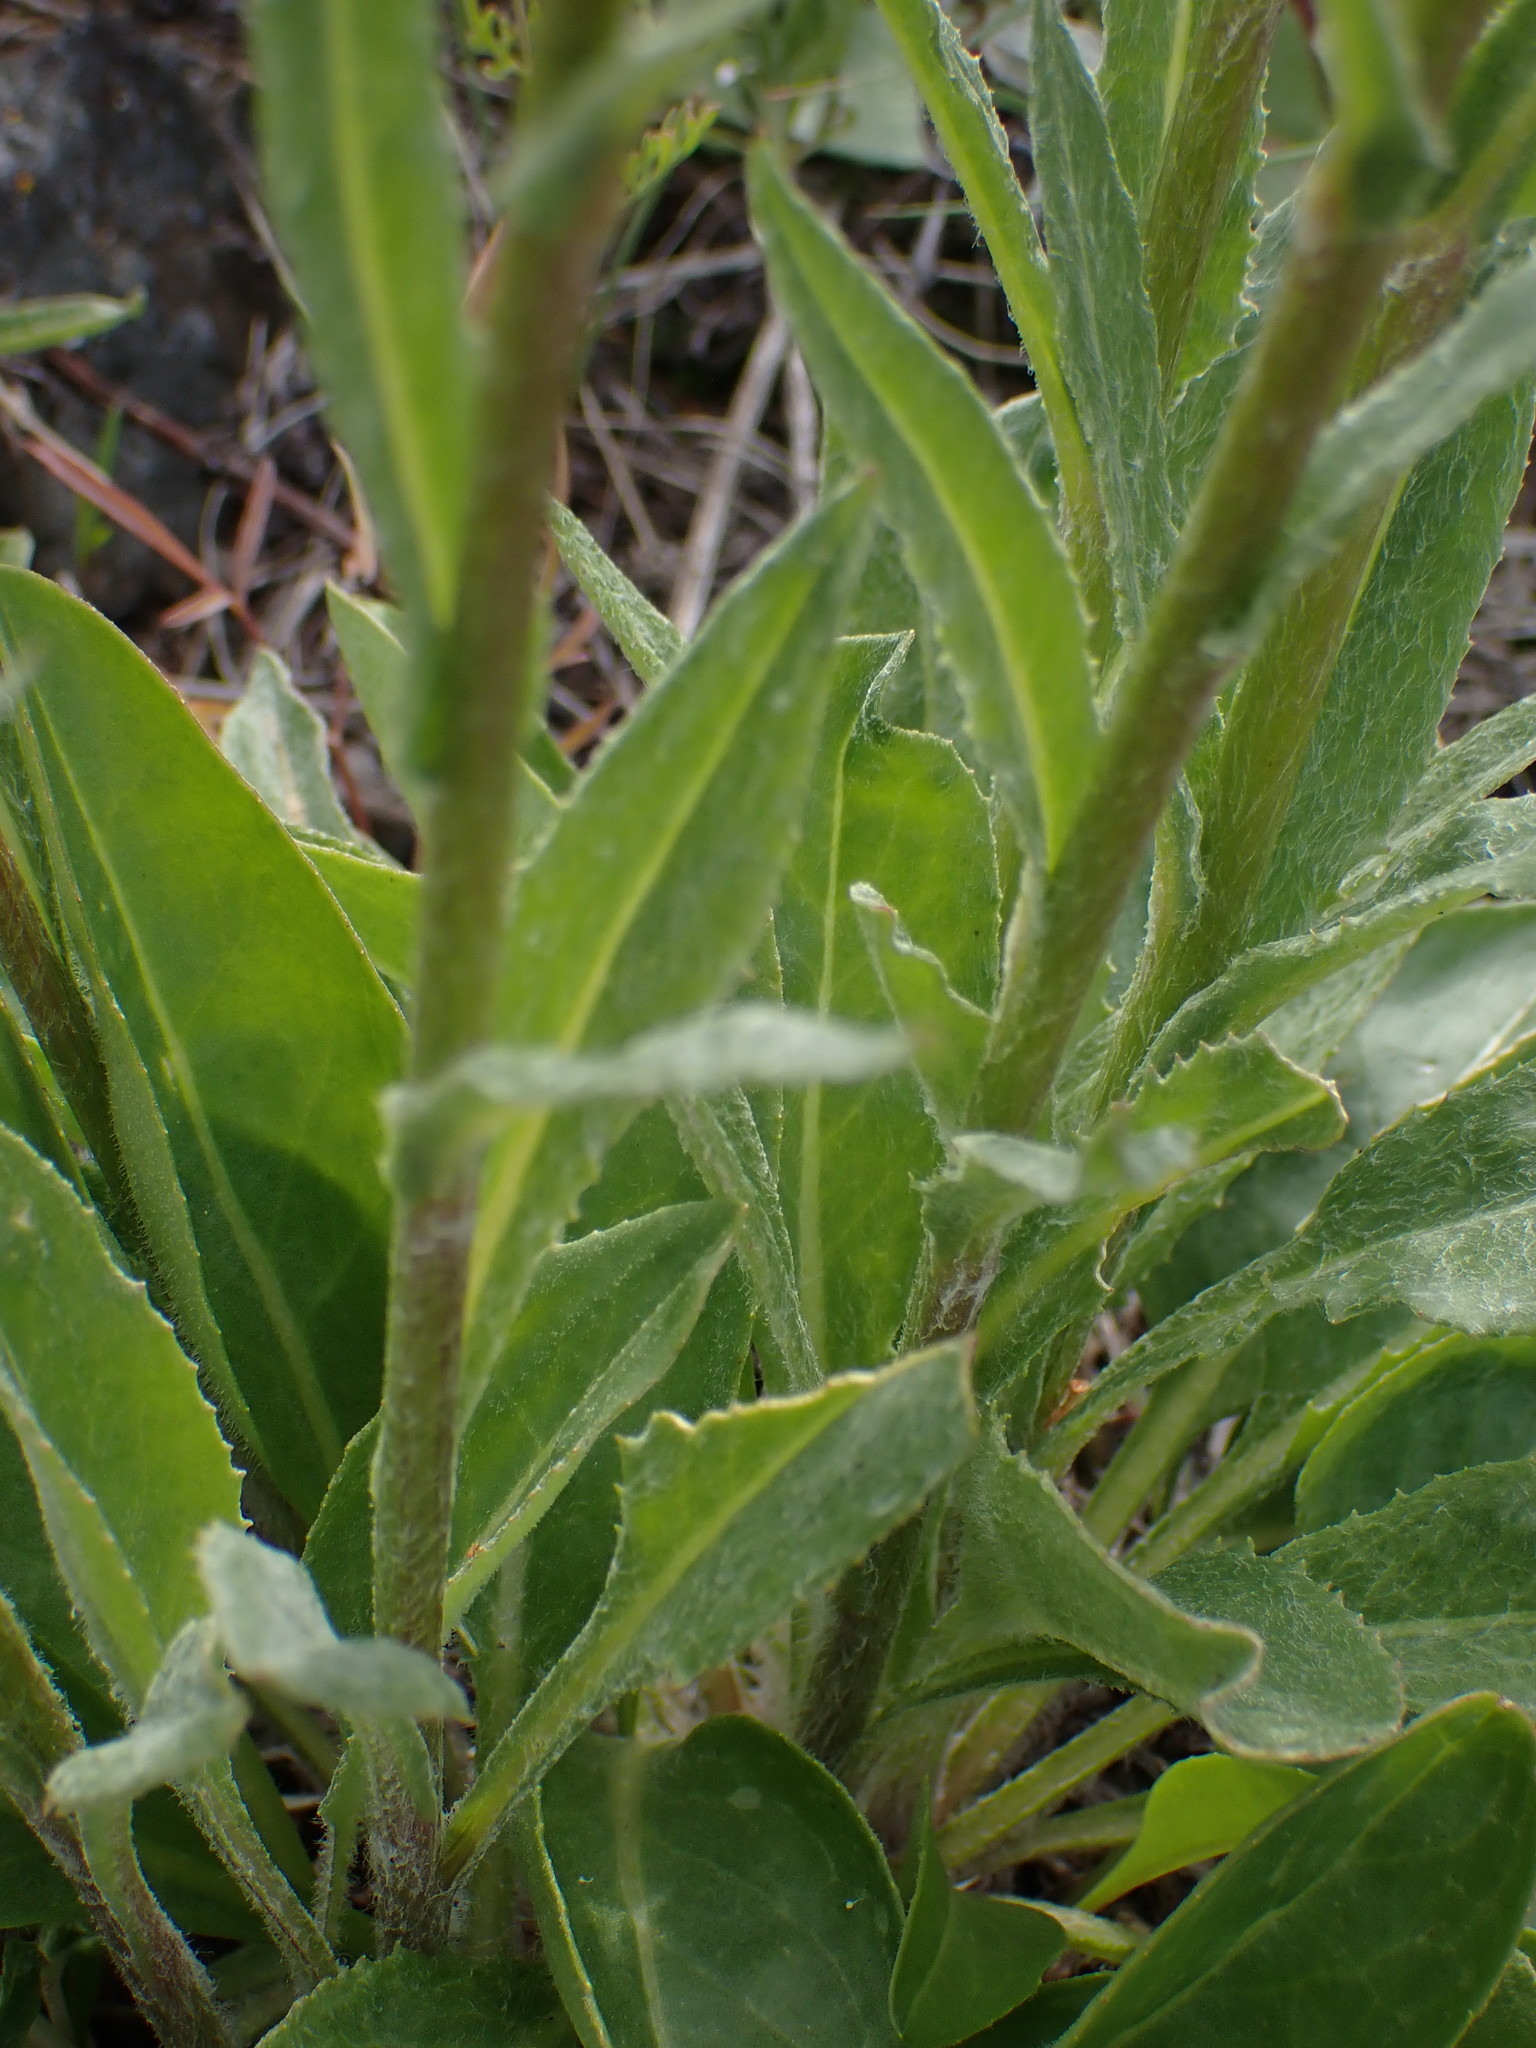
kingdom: Plantae
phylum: Tracheophyta
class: Magnoliopsida
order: Asterales
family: Asteraceae
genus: Senecio
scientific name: Senecio integerrimus
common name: Gaugeplant
